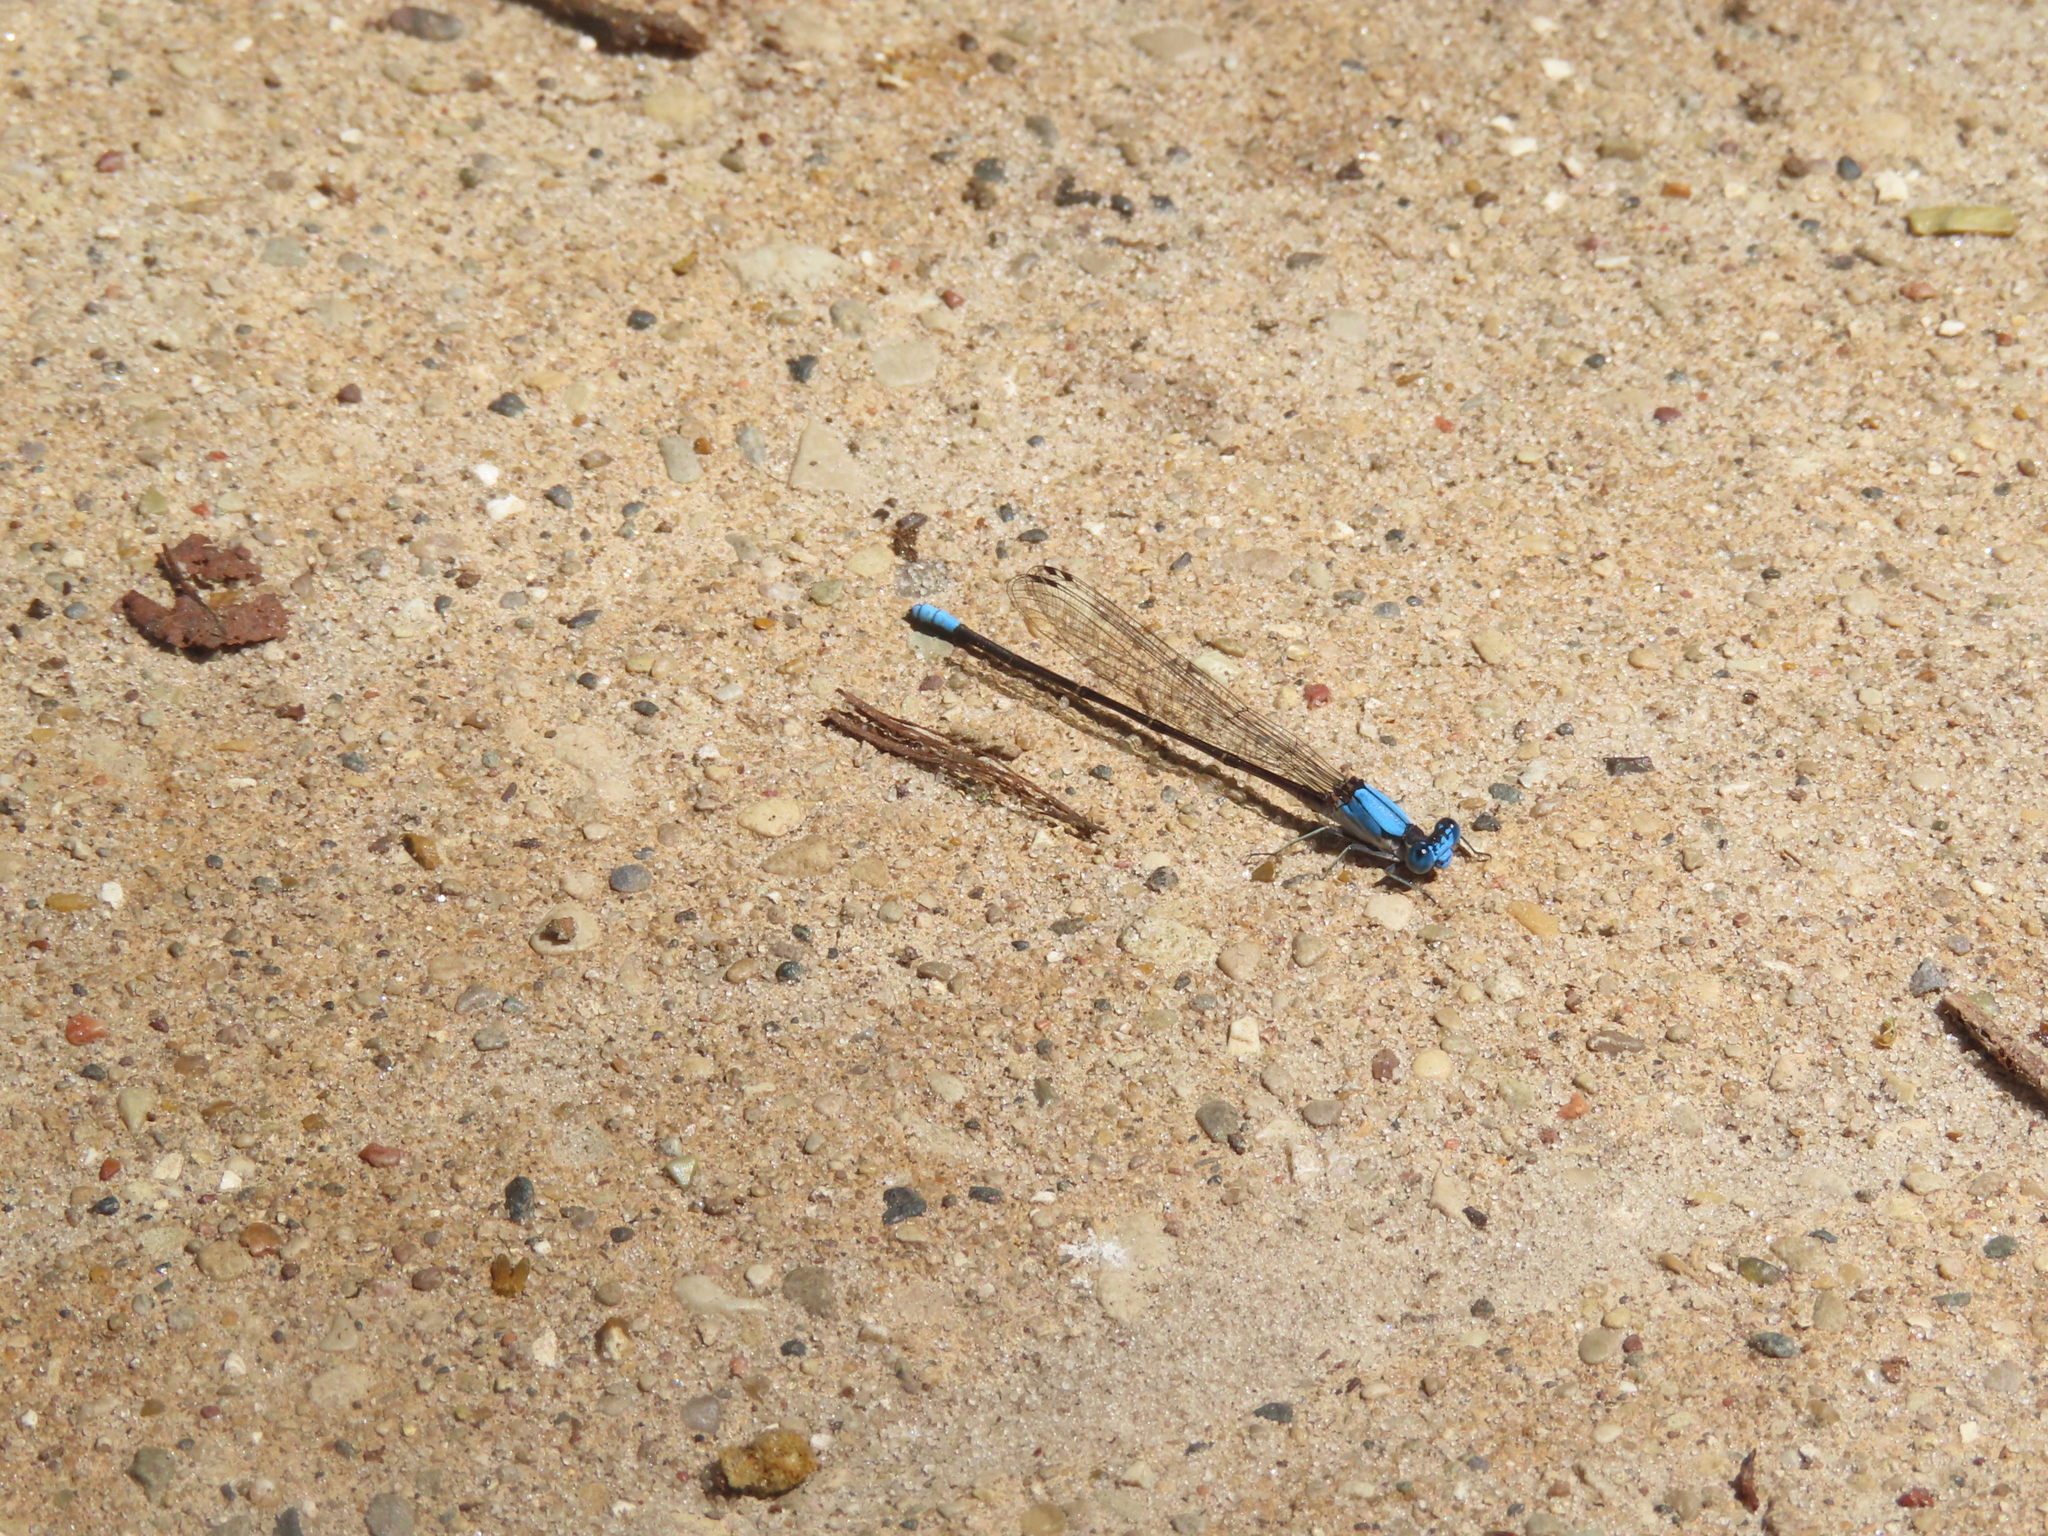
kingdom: Animalia
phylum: Arthropoda
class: Insecta
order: Odonata
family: Coenagrionidae
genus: Argia
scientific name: Argia apicalis
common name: Blue-fronted dancer
